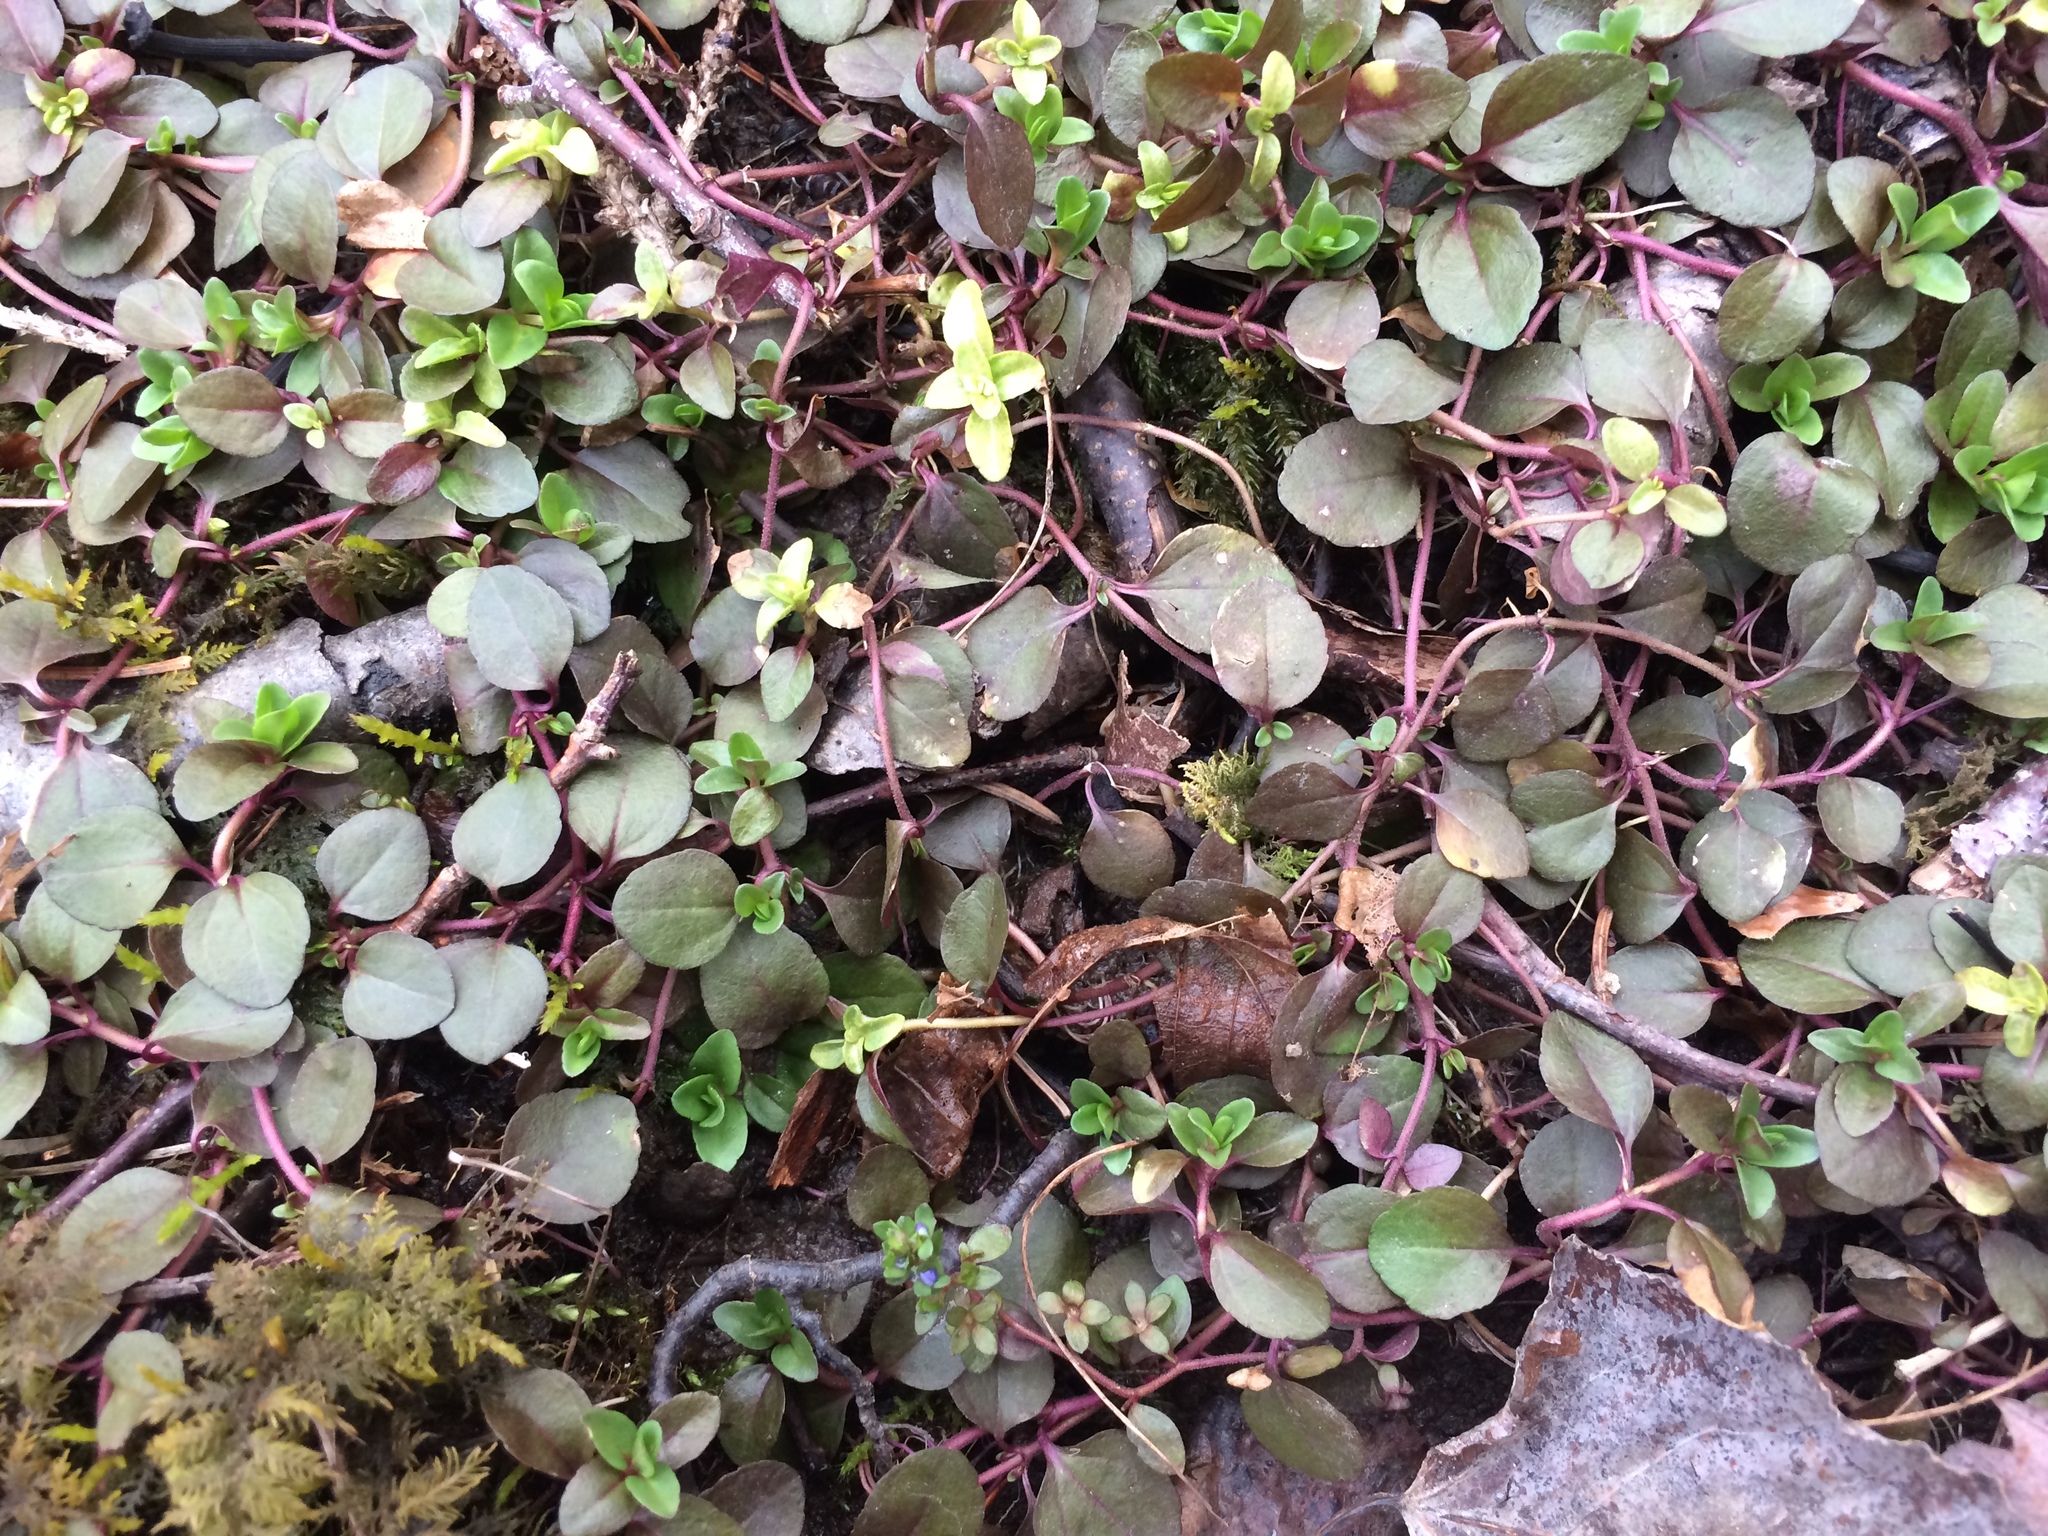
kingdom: Plantae
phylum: Tracheophyta
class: Magnoliopsida
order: Lamiales
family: Plantaginaceae
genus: Veronica
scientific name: Veronica serpyllifolia
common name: Thyme-leaved speedwell
